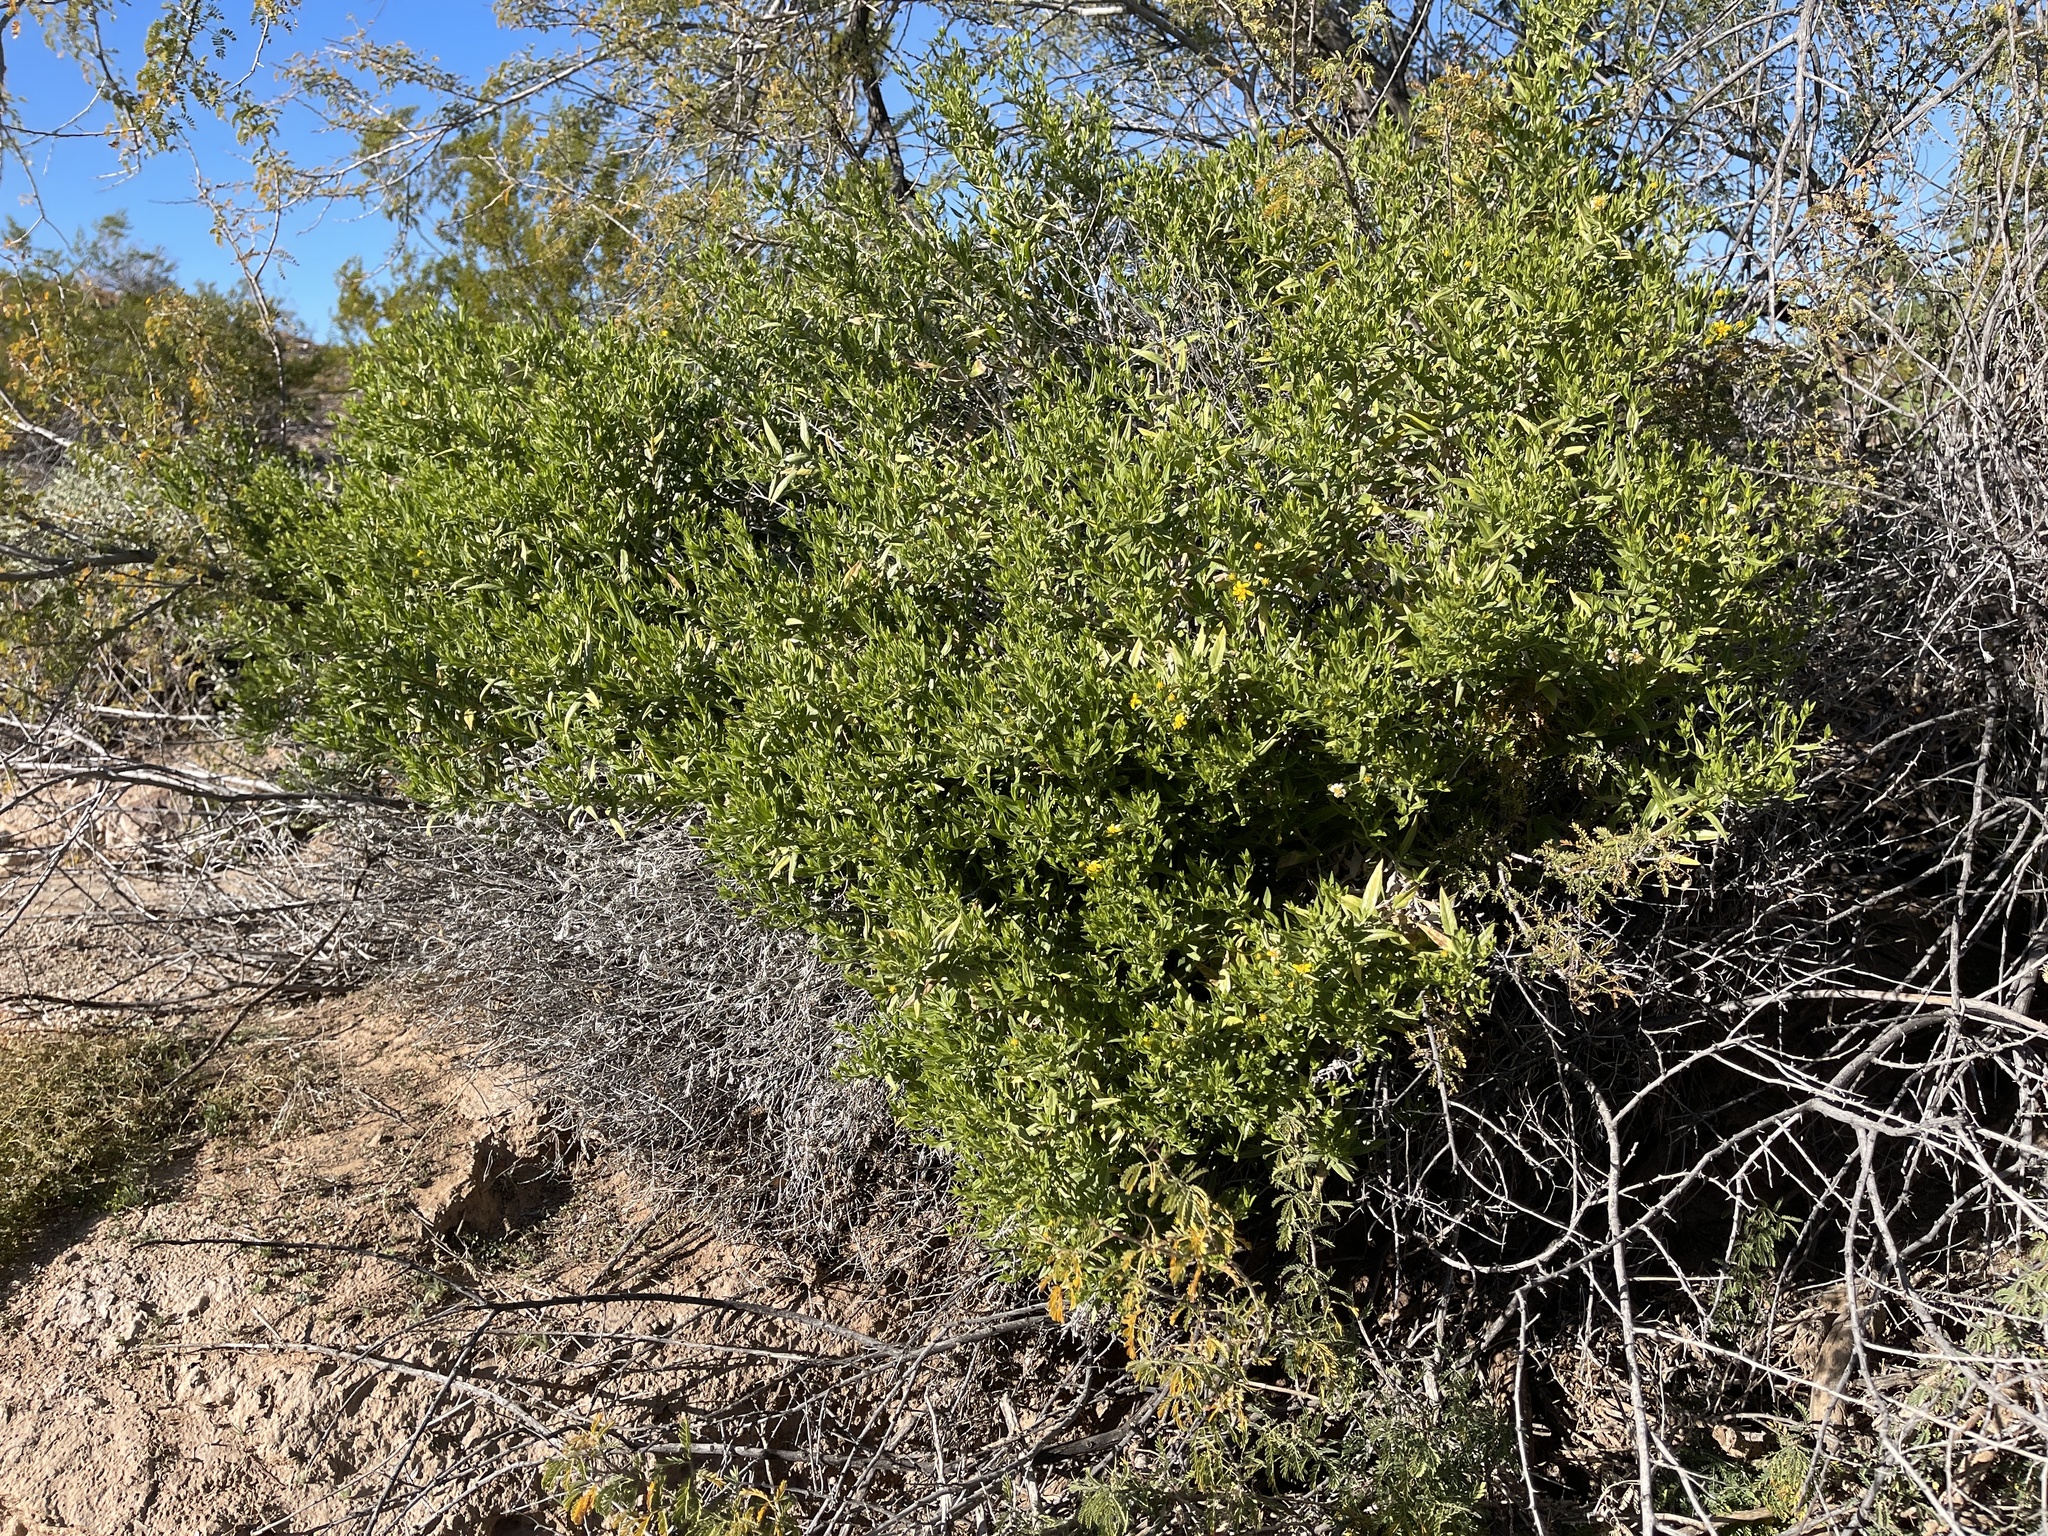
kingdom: Plantae
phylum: Tracheophyta
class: Magnoliopsida
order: Asterales
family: Asteraceae
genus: Trixis
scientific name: Trixis californica
